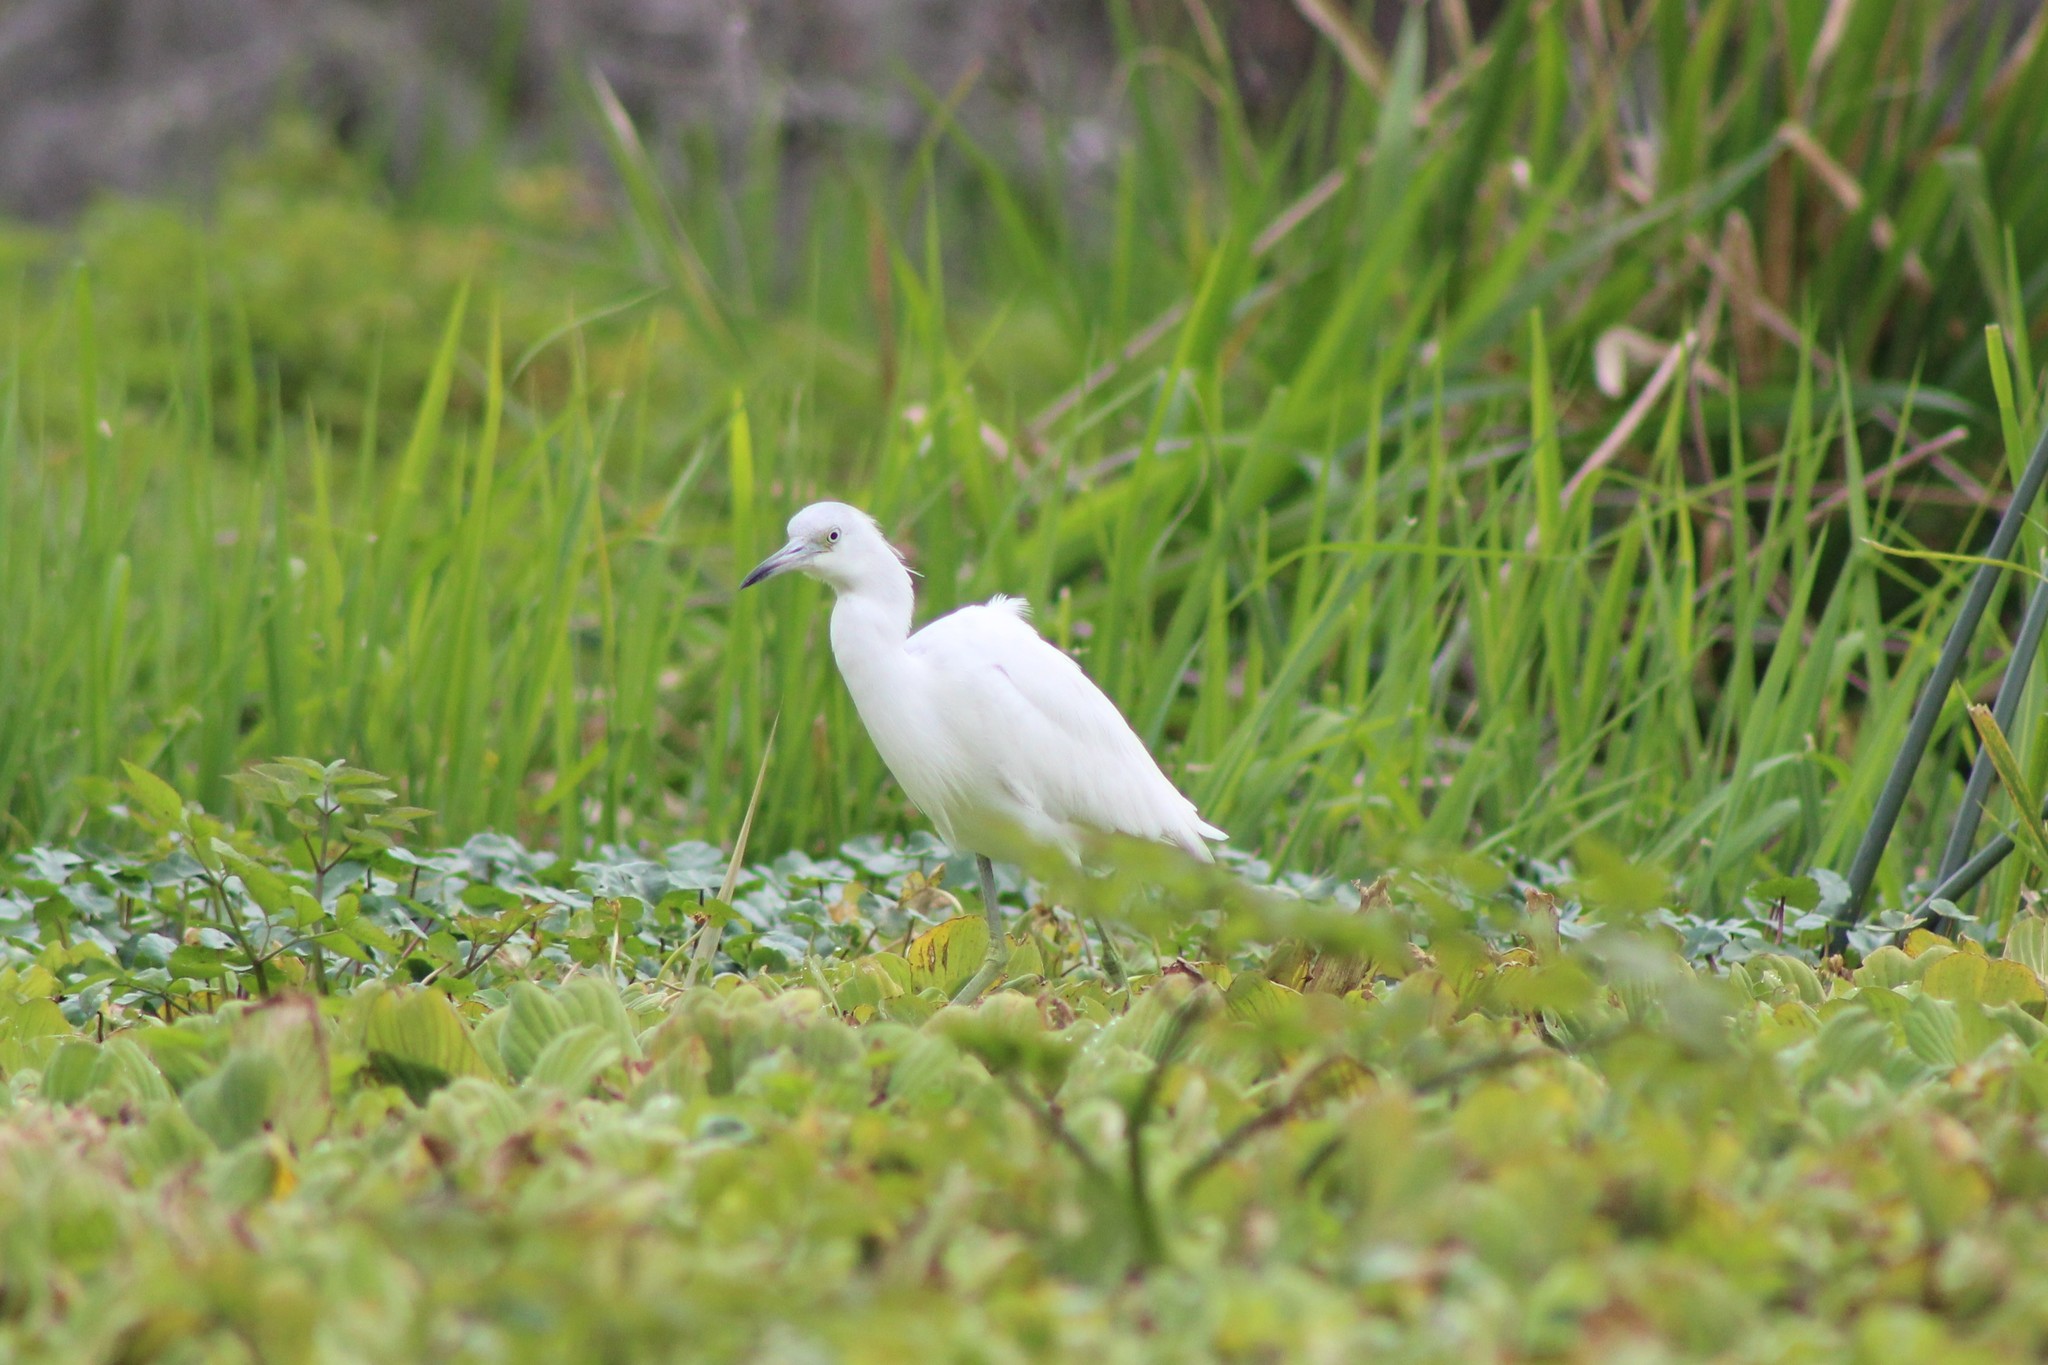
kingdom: Animalia
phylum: Chordata
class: Aves
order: Pelecaniformes
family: Ardeidae
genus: Egretta
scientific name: Egretta caerulea
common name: Little blue heron
